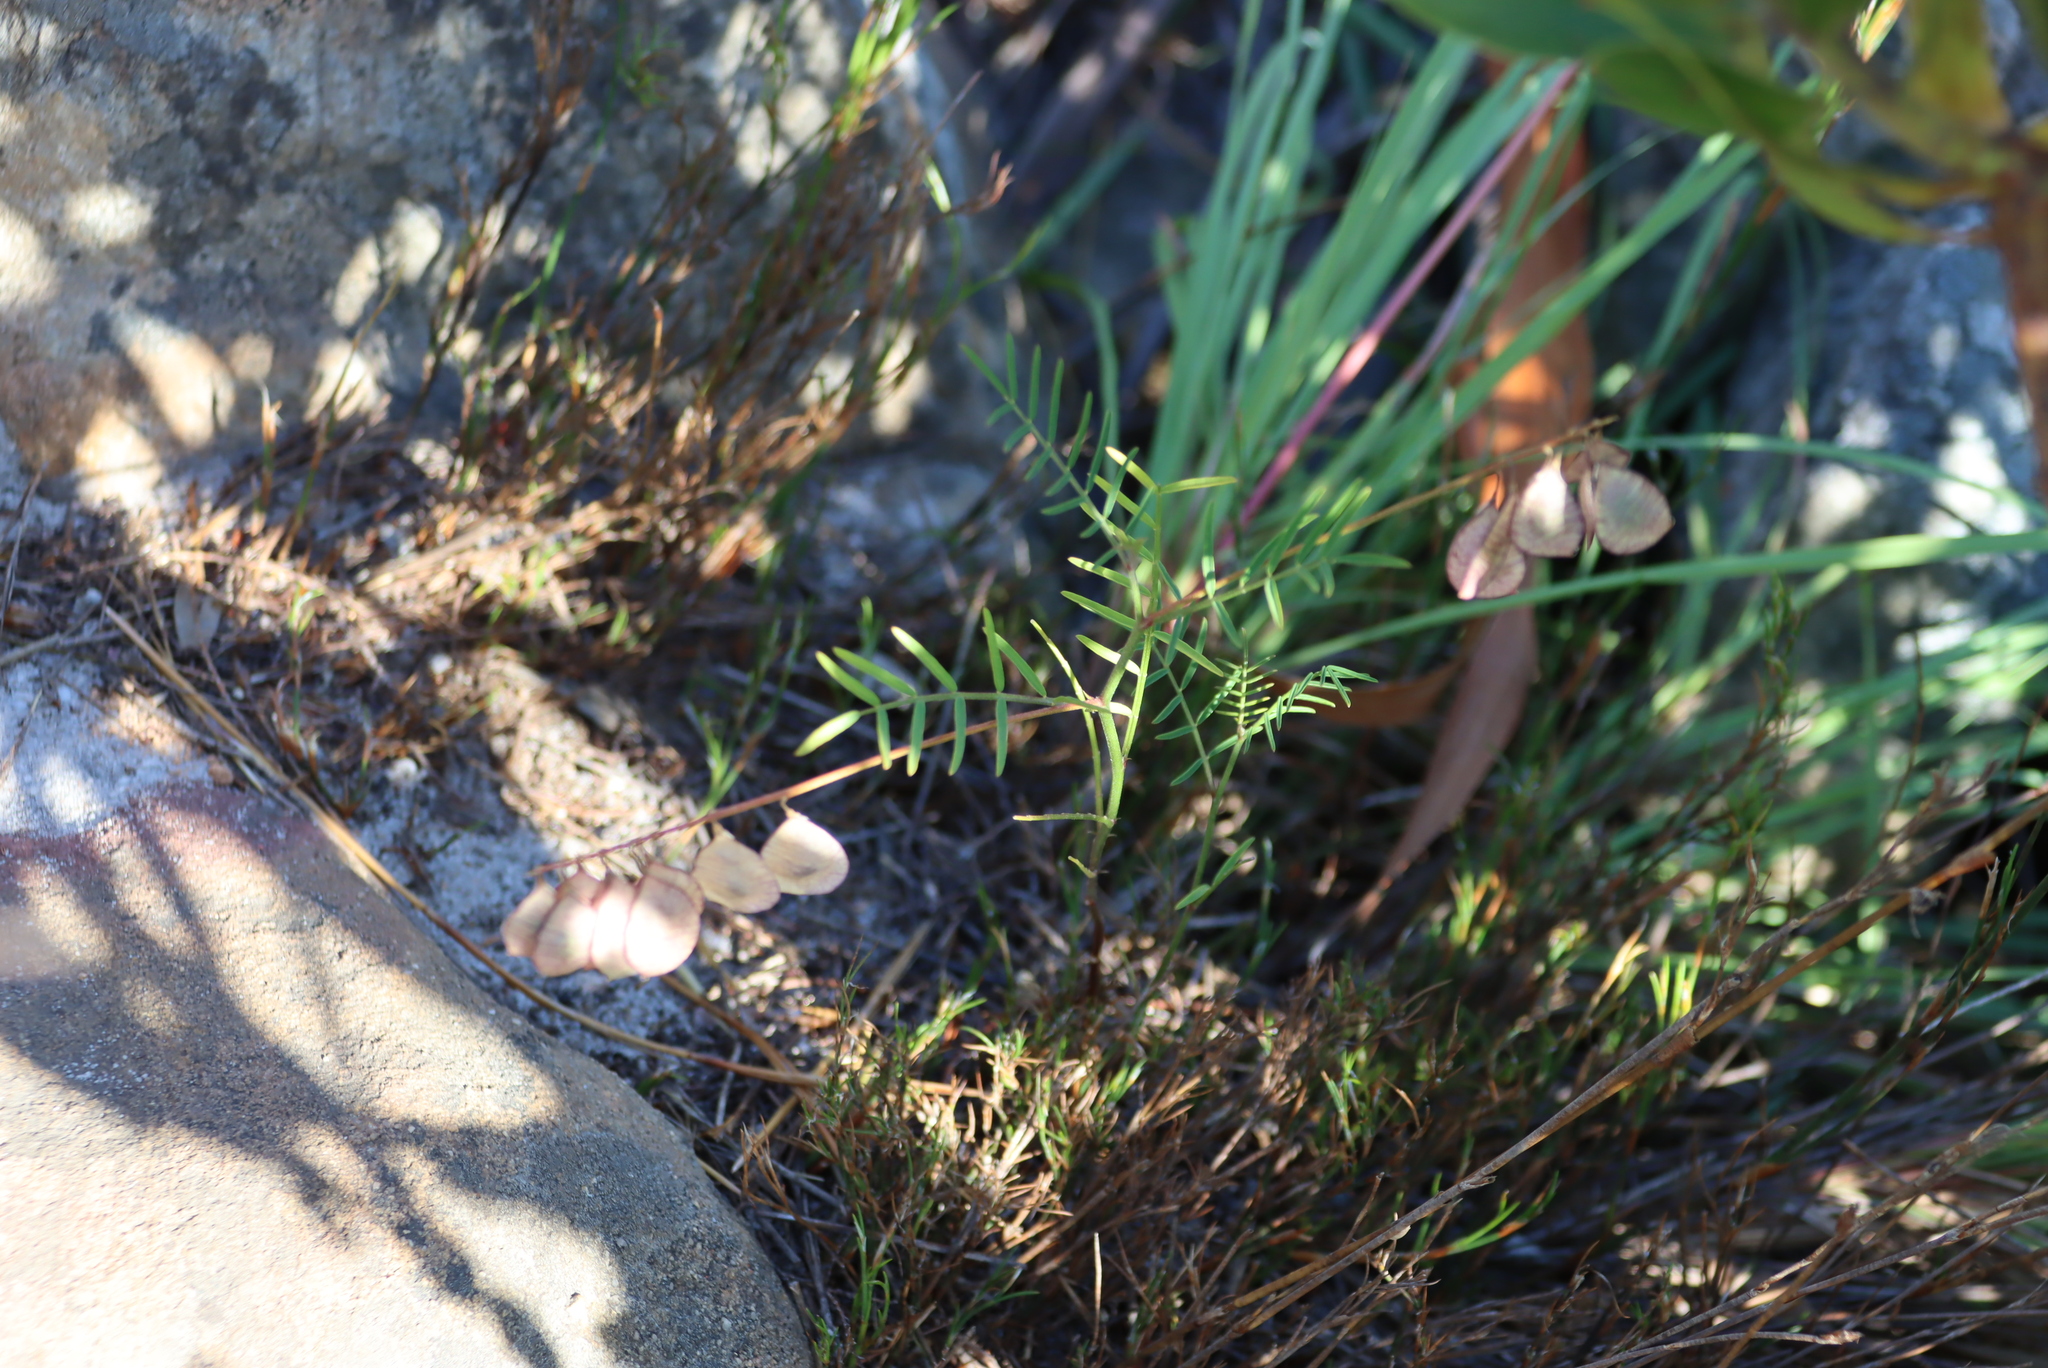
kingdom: Plantae
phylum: Tracheophyta
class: Magnoliopsida
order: Fabales
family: Fabaceae
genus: Lessertia
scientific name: Lessertia herbacea
